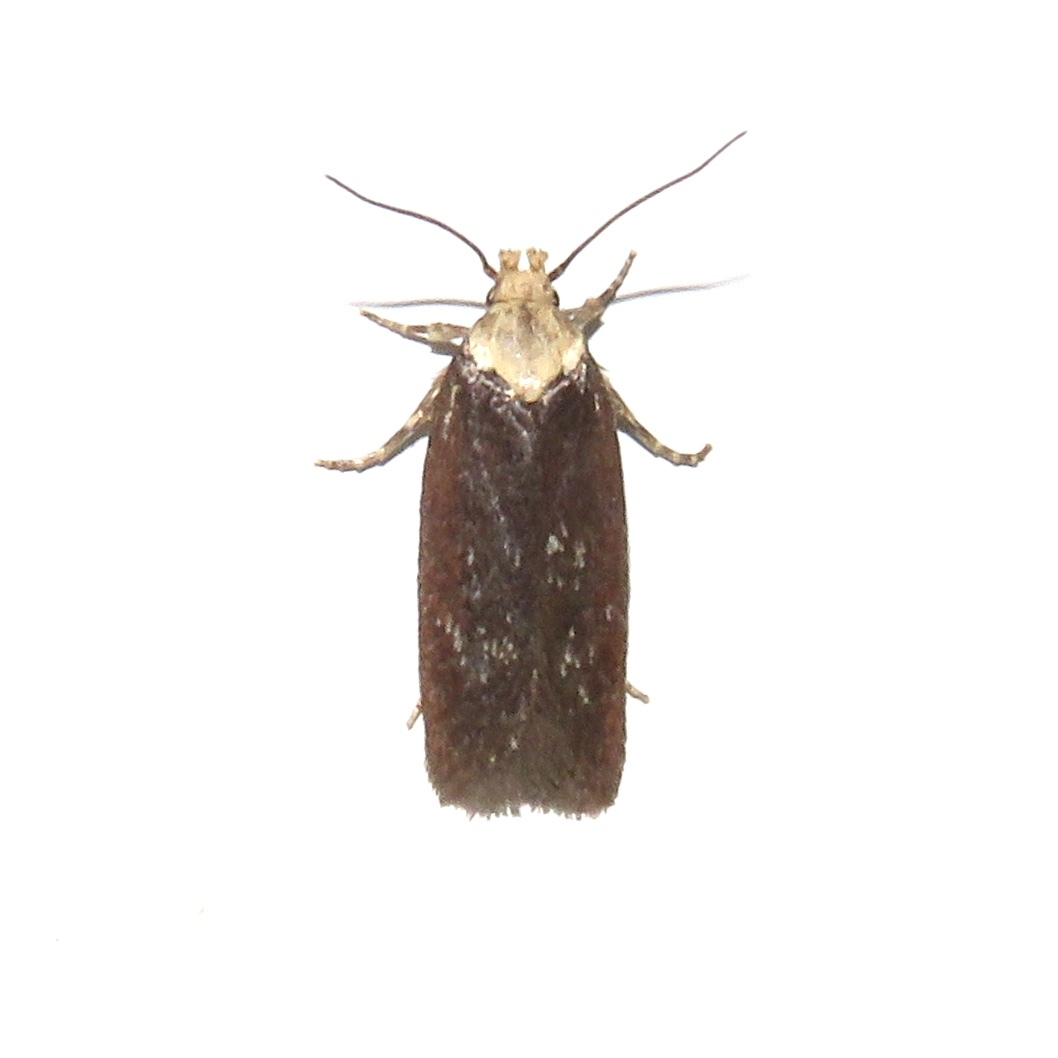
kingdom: Animalia
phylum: Arthropoda
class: Insecta
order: Lepidoptera
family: Depressariidae
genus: Depressaria
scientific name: Depressaria depressana
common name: Lost flat-body
